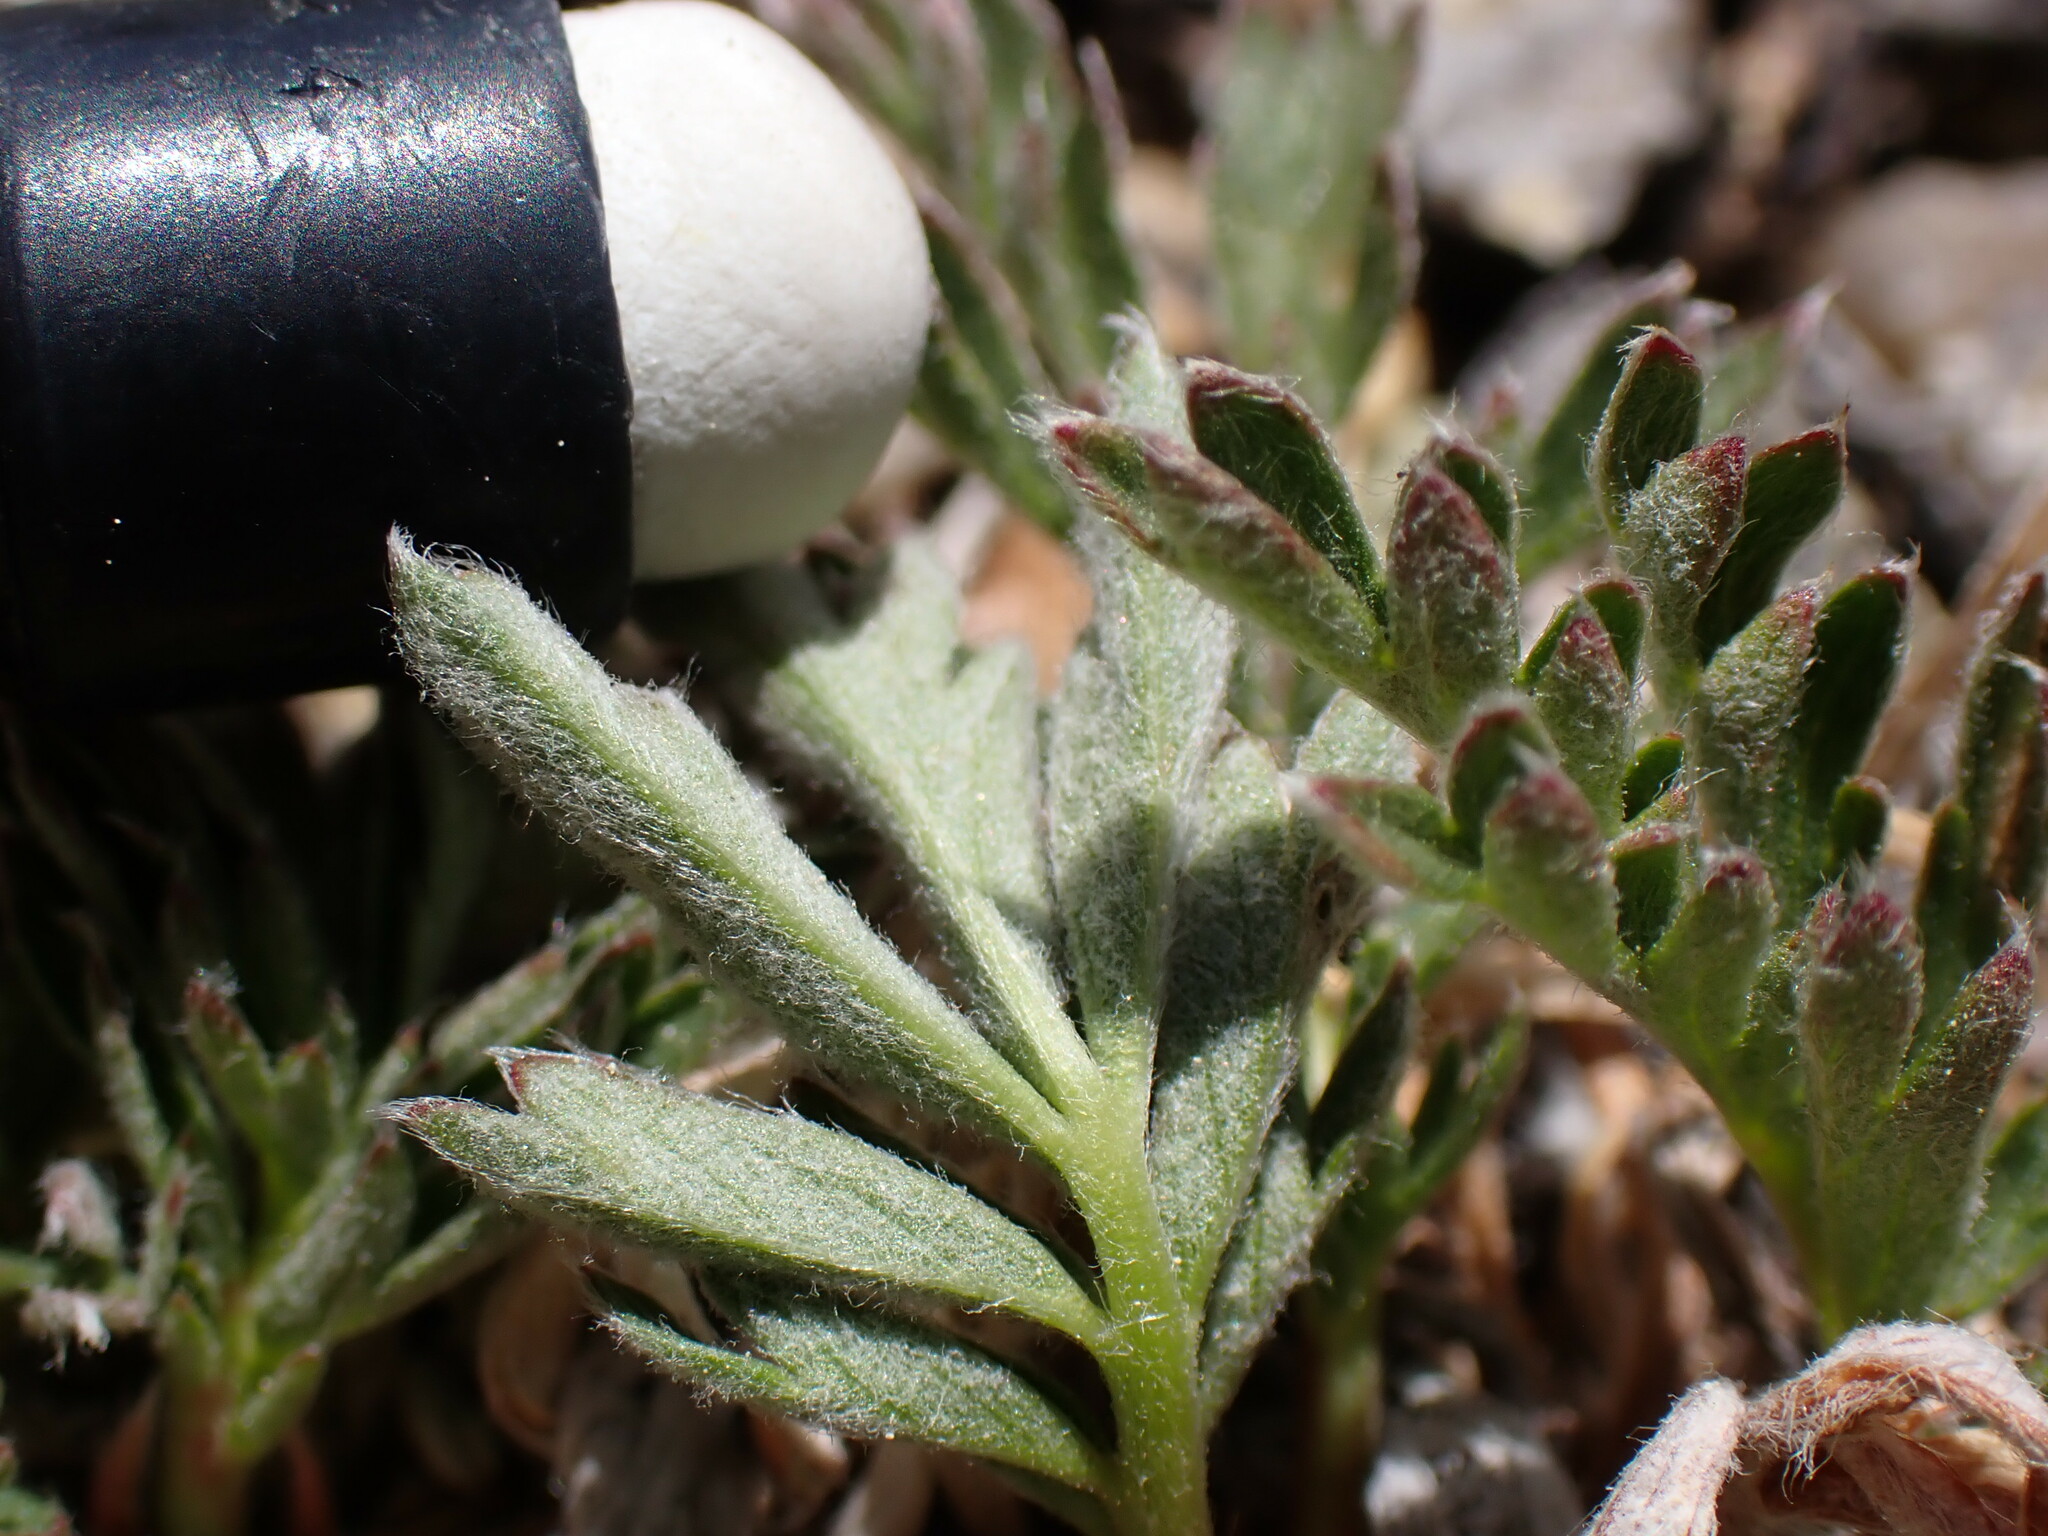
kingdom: Plantae
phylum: Tracheophyta
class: Magnoliopsida
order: Rosales
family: Rosaceae
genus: Potentilla
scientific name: Potentilla morefieldii
